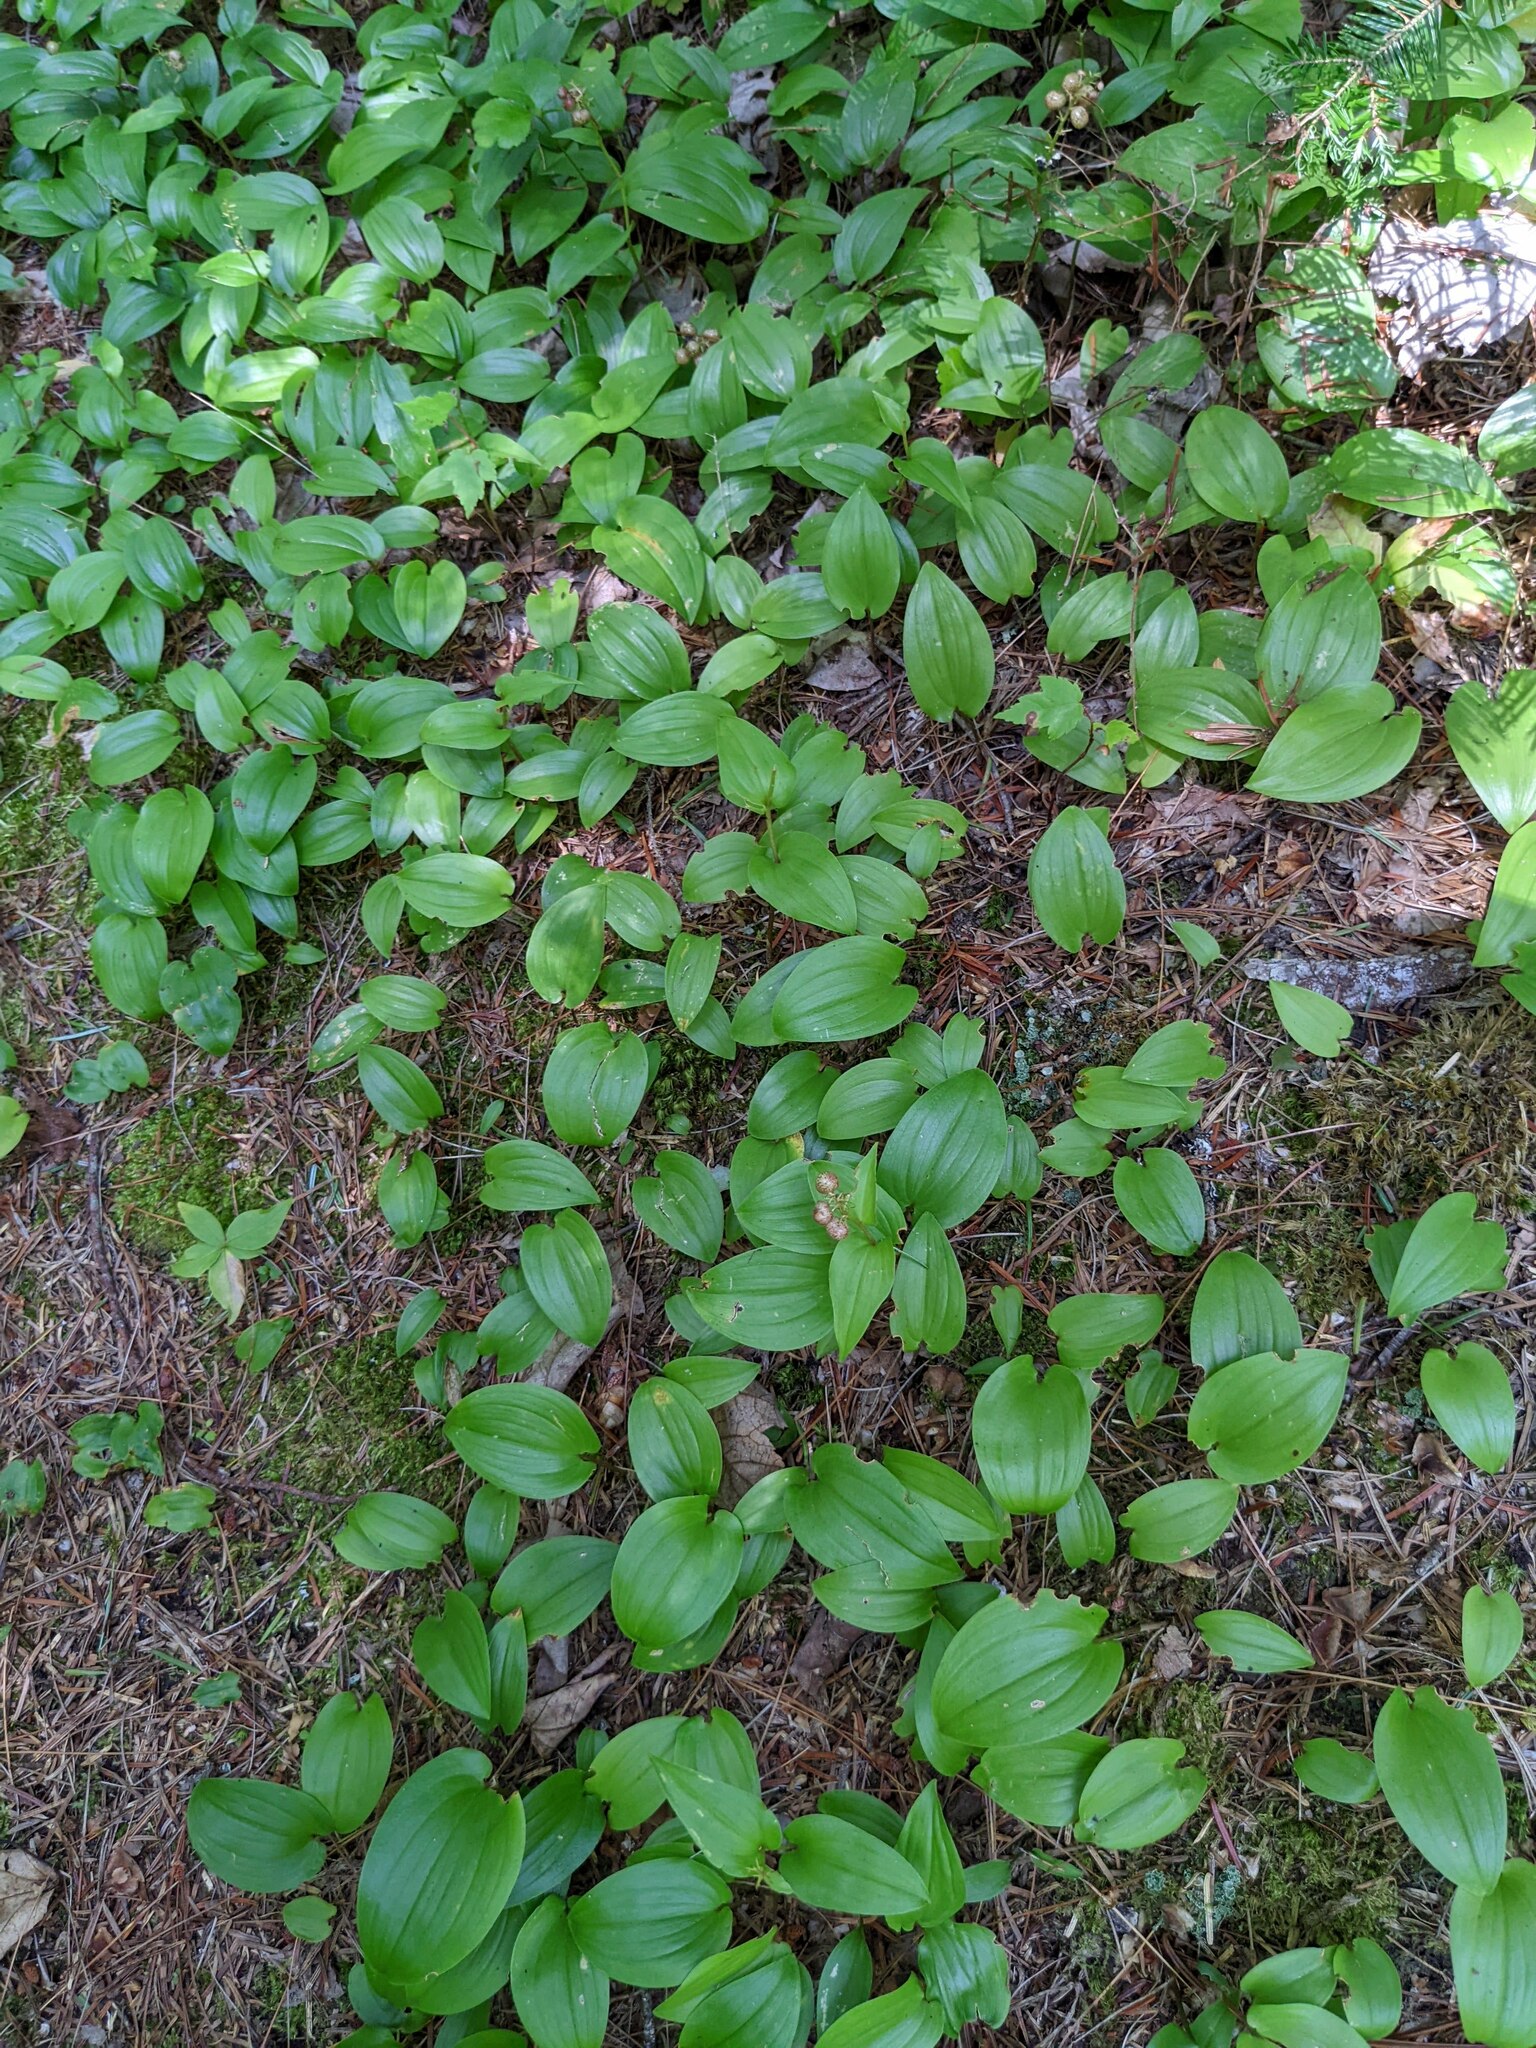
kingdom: Plantae
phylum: Tracheophyta
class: Liliopsida
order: Asparagales
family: Asparagaceae
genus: Maianthemum
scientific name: Maianthemum canadense
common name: False lily-of-the-valley
